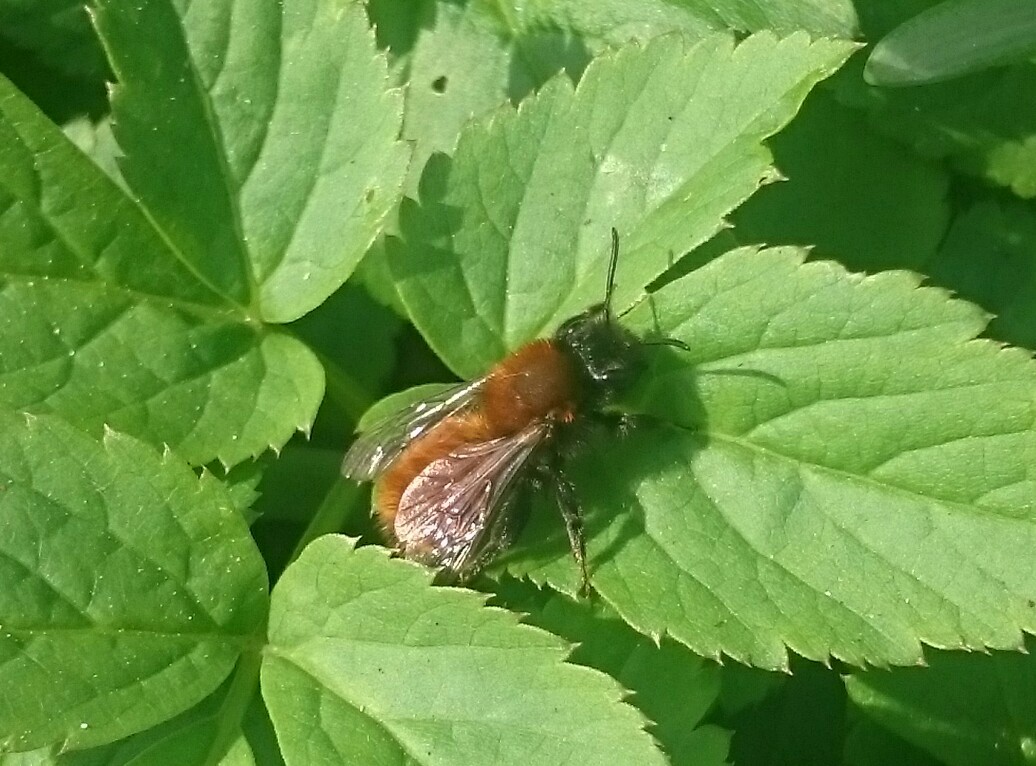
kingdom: Animalia
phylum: Arthropoda
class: Insecta
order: Hymenoptera
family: Andrenidae
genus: Andrena
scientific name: Andrena fulva
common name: Tawny mining bee
